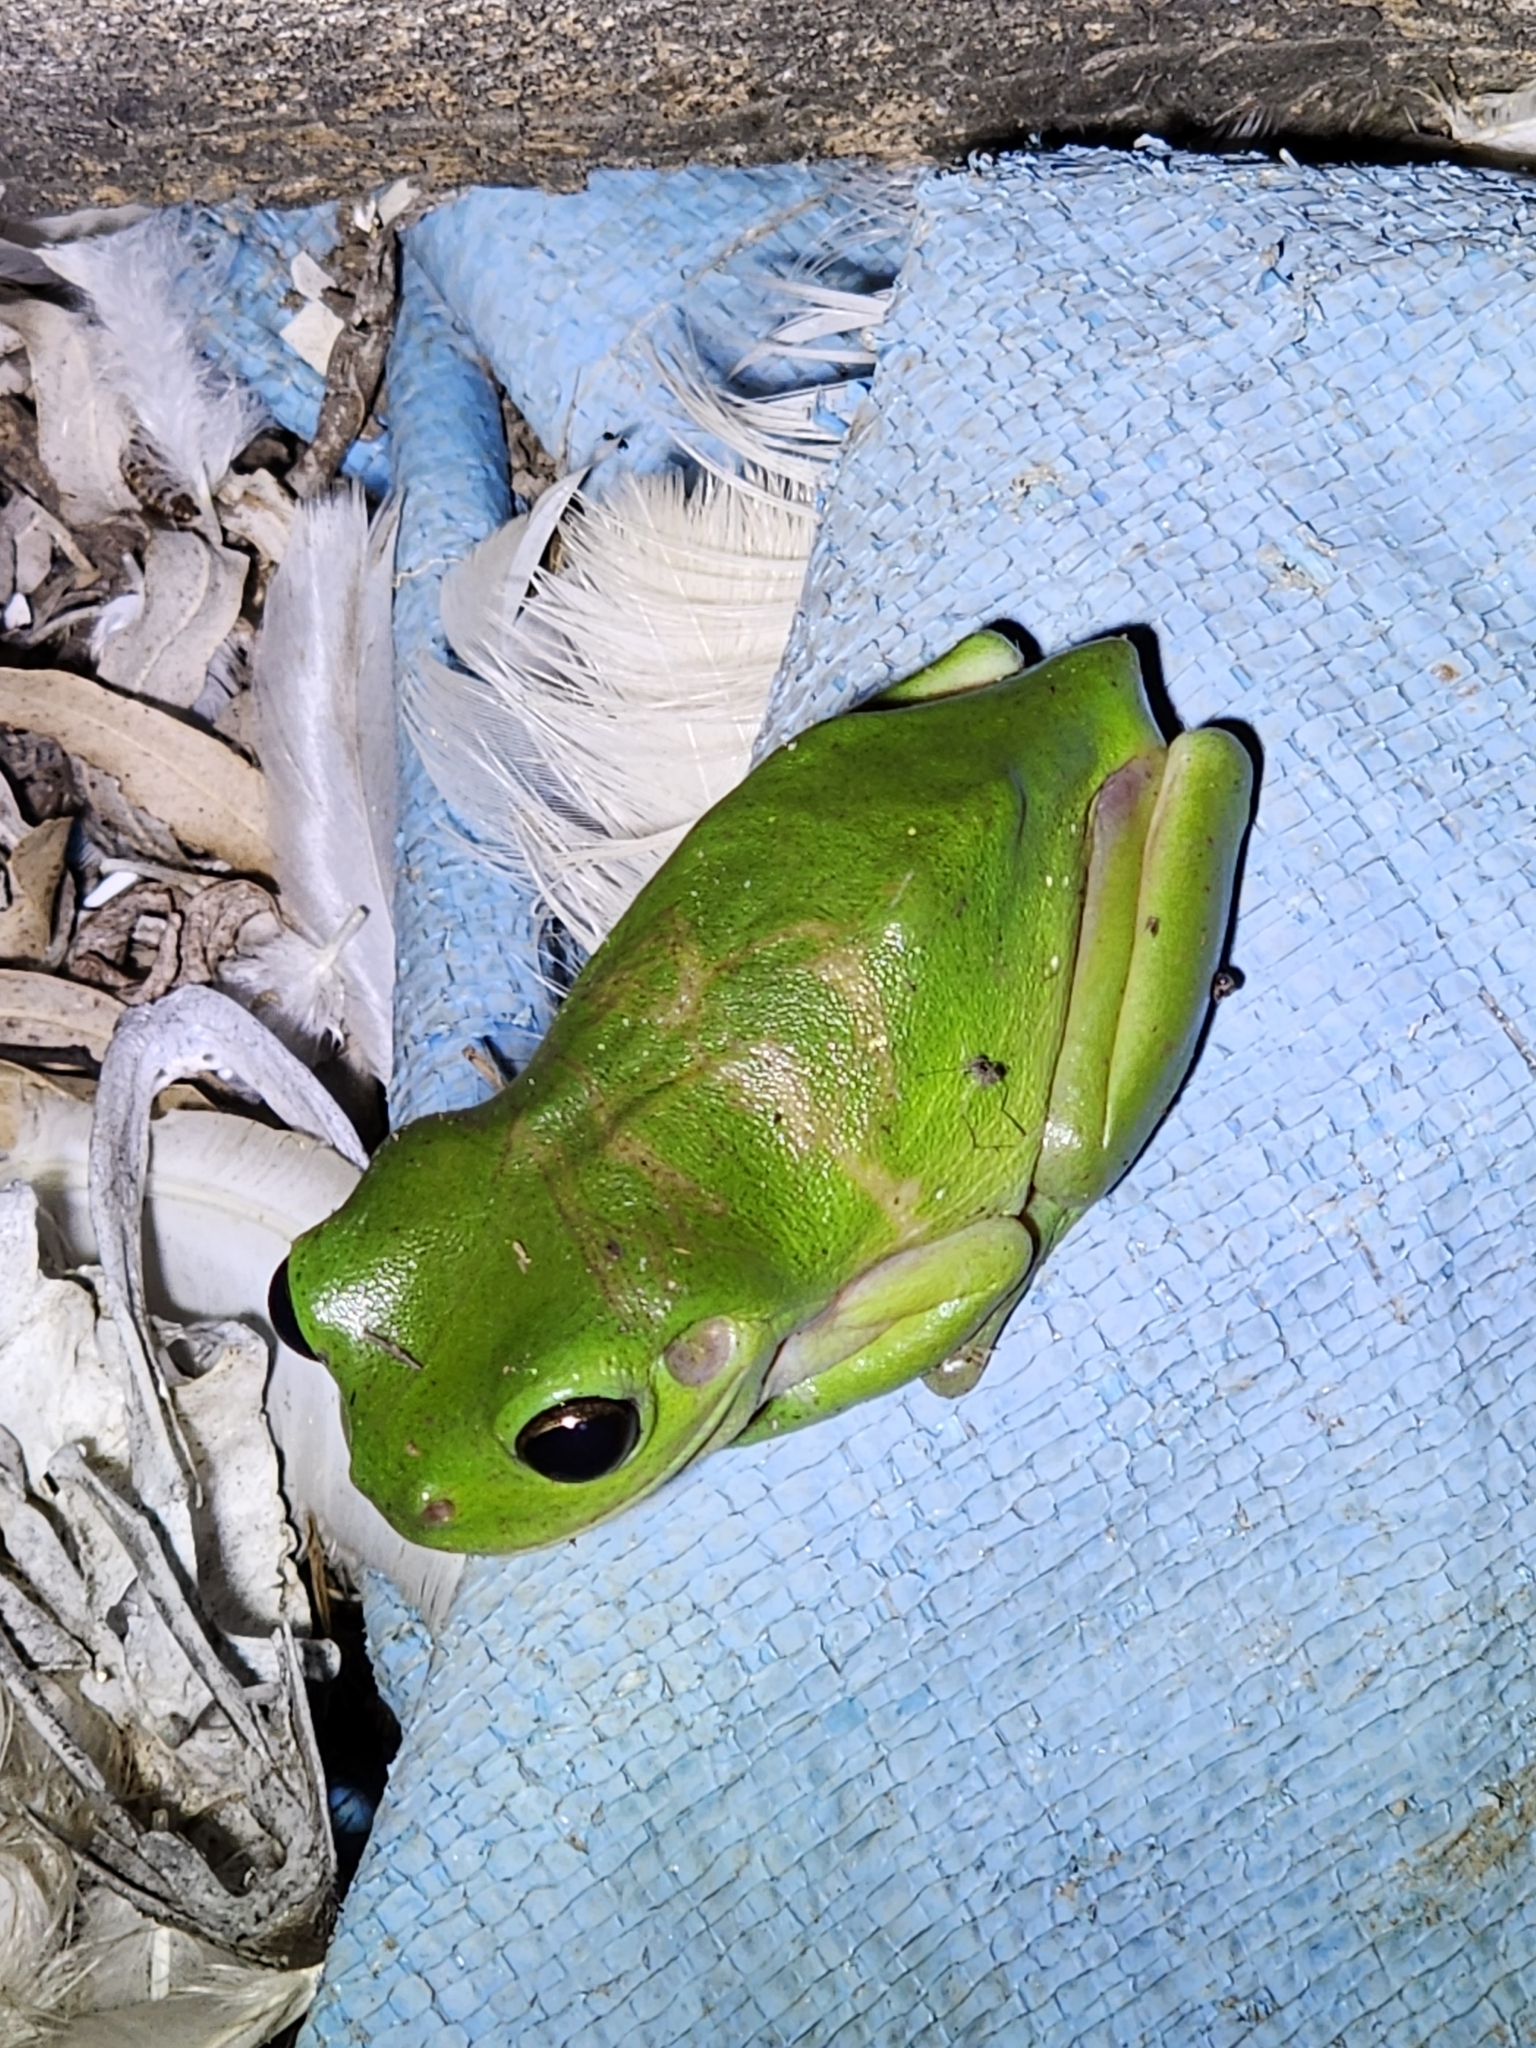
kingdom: Animalia
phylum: Chordata
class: Amphibia
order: Anura
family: Pelodryadidae
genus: Ranoidea
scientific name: Ranoidea caerulea
